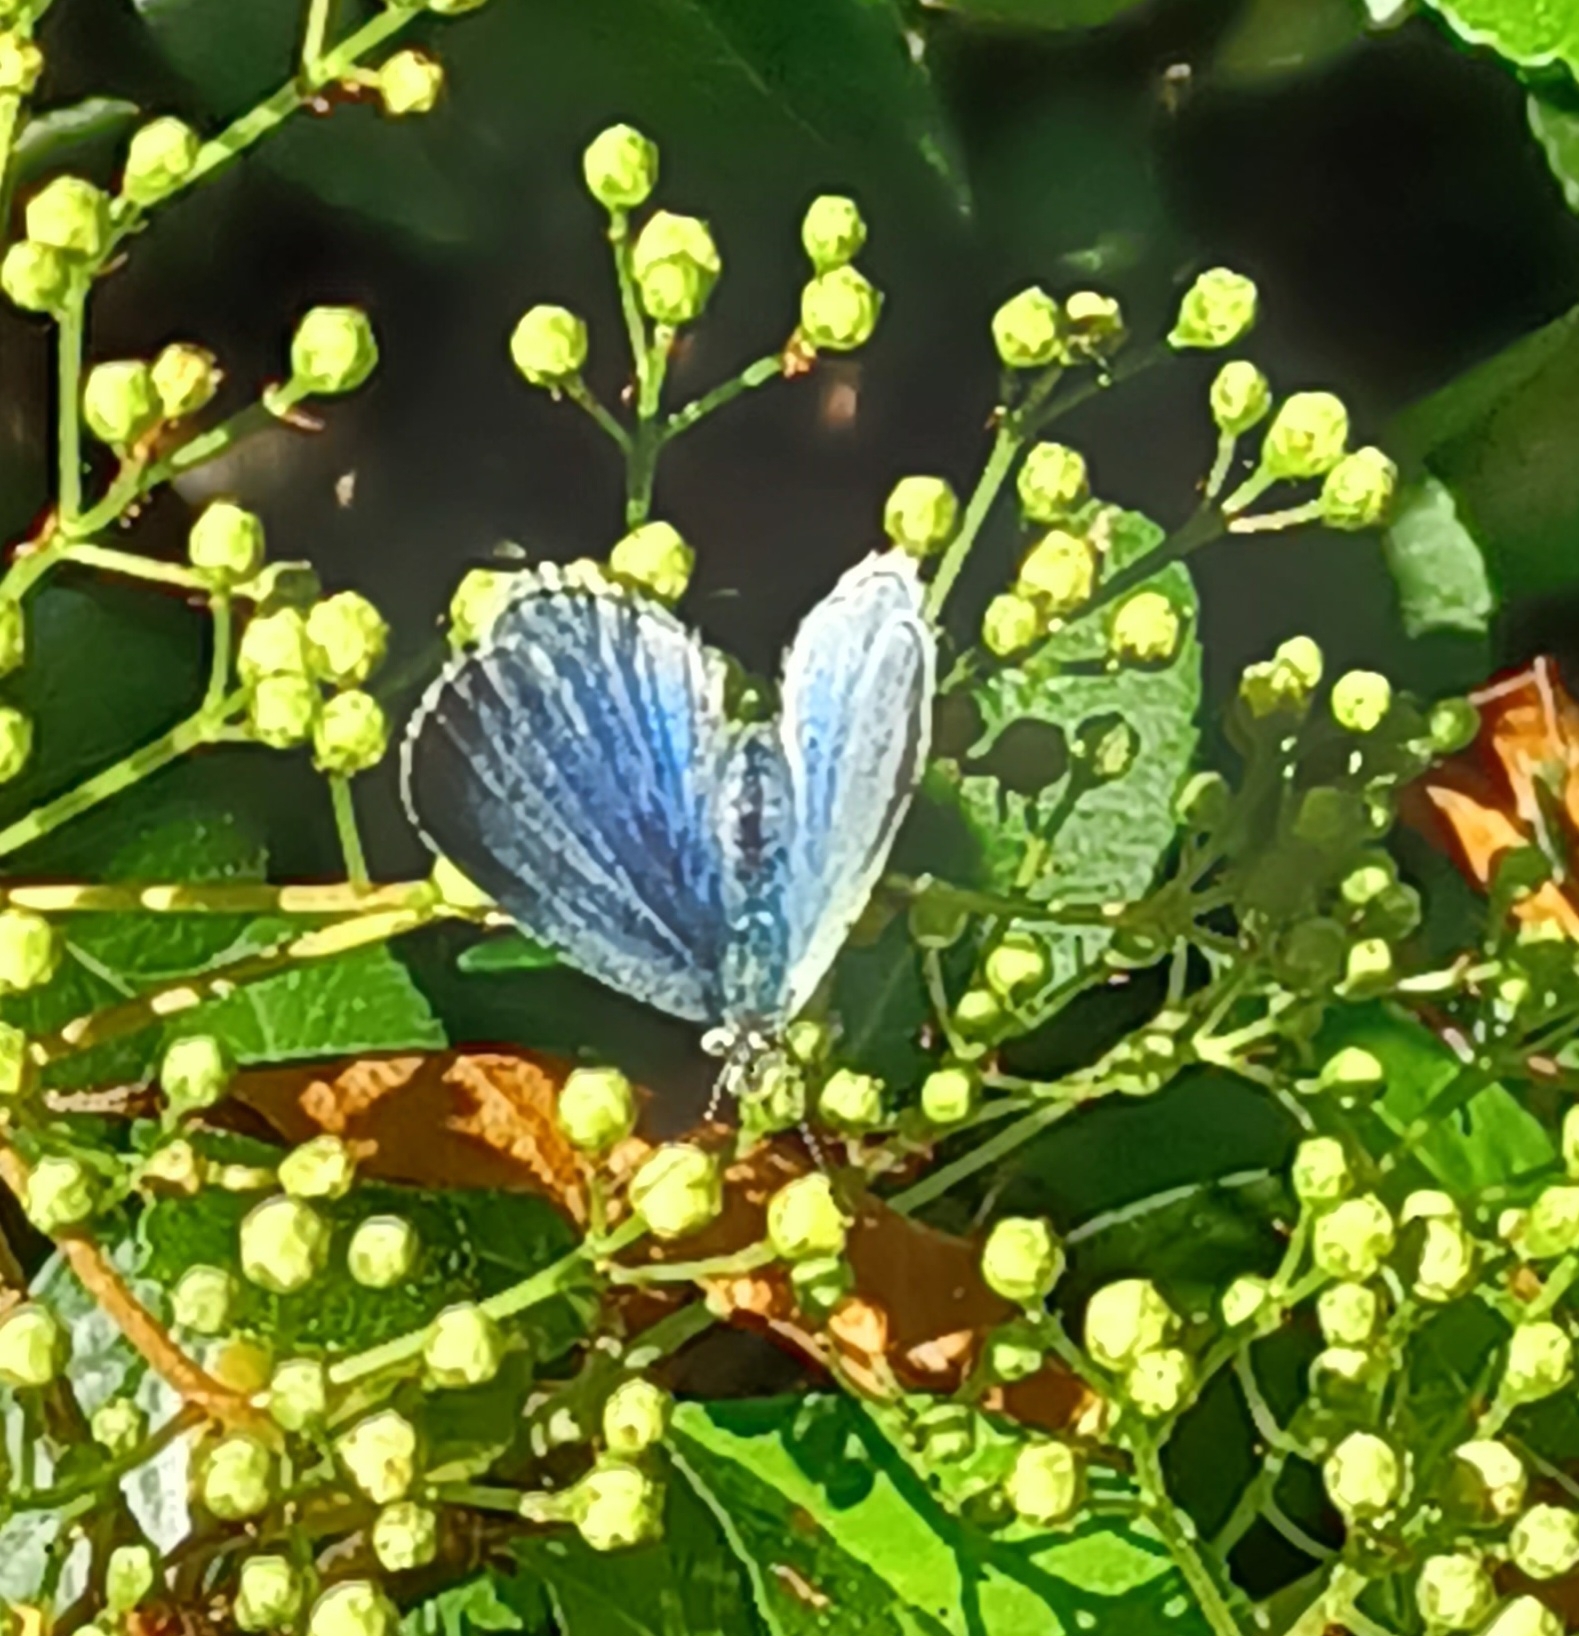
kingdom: Animalia
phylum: Arthropoda
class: Insecta
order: Lepidoptera
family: Lycaenidae
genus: Celastrina
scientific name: Celastrina argiolus
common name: Holly blue
